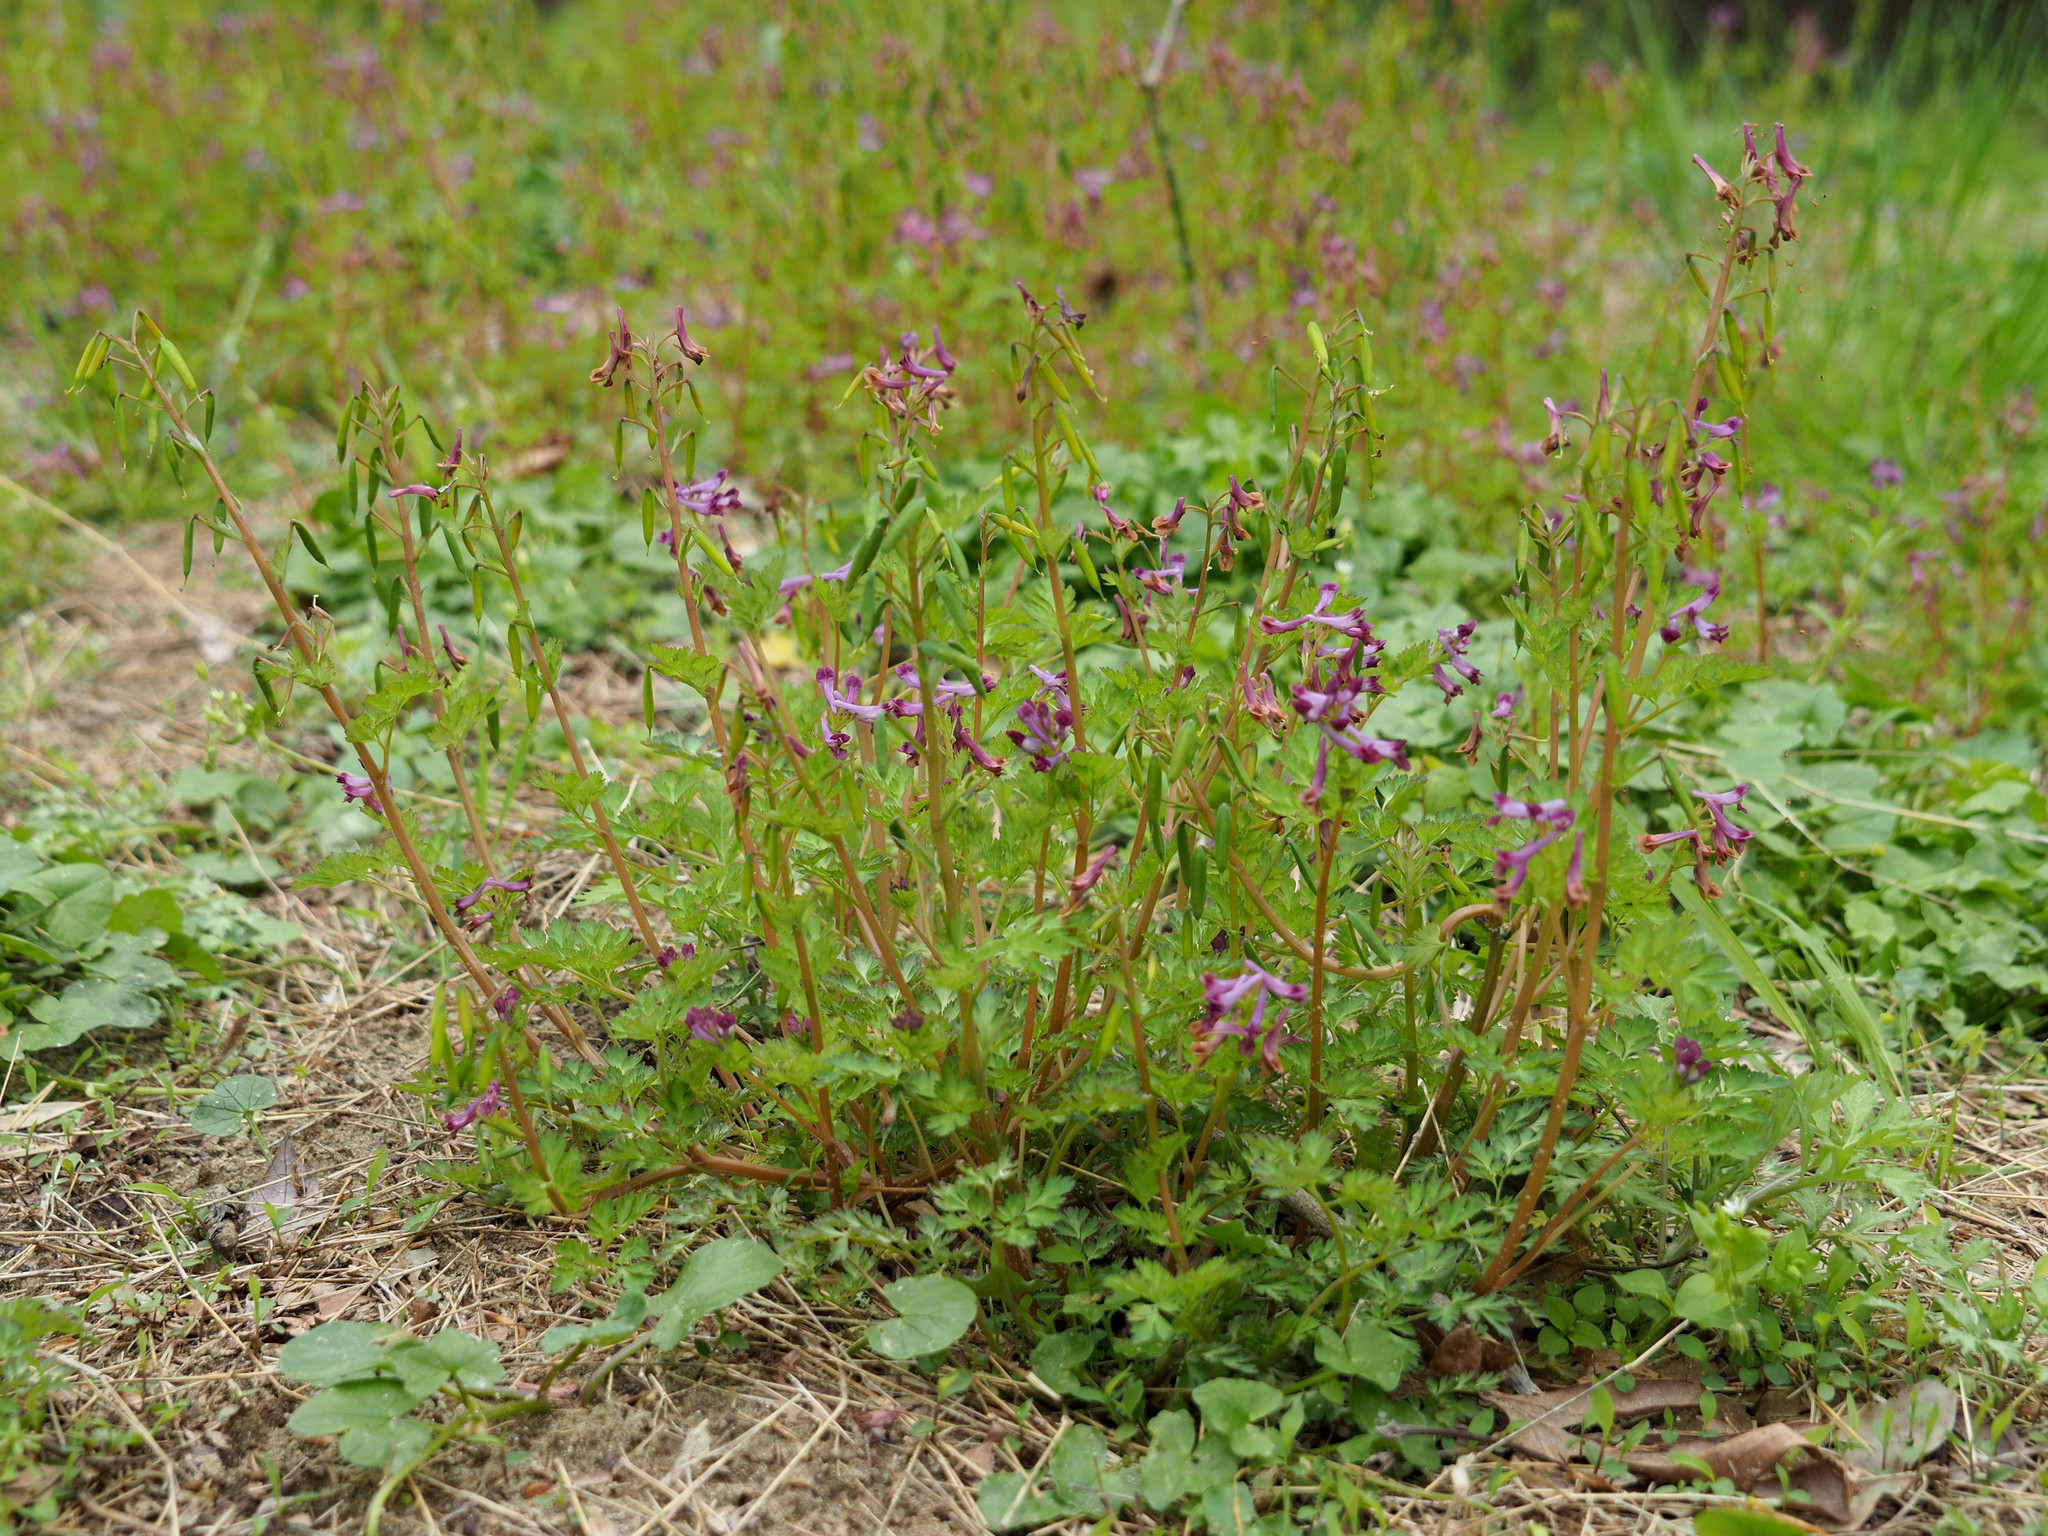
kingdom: Plantae
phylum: Tracheophyta
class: Magnoliopsida
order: Ranunculales
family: Papaveraceae
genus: Corydalis
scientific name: Corydalis incisa
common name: Incised fumewort
